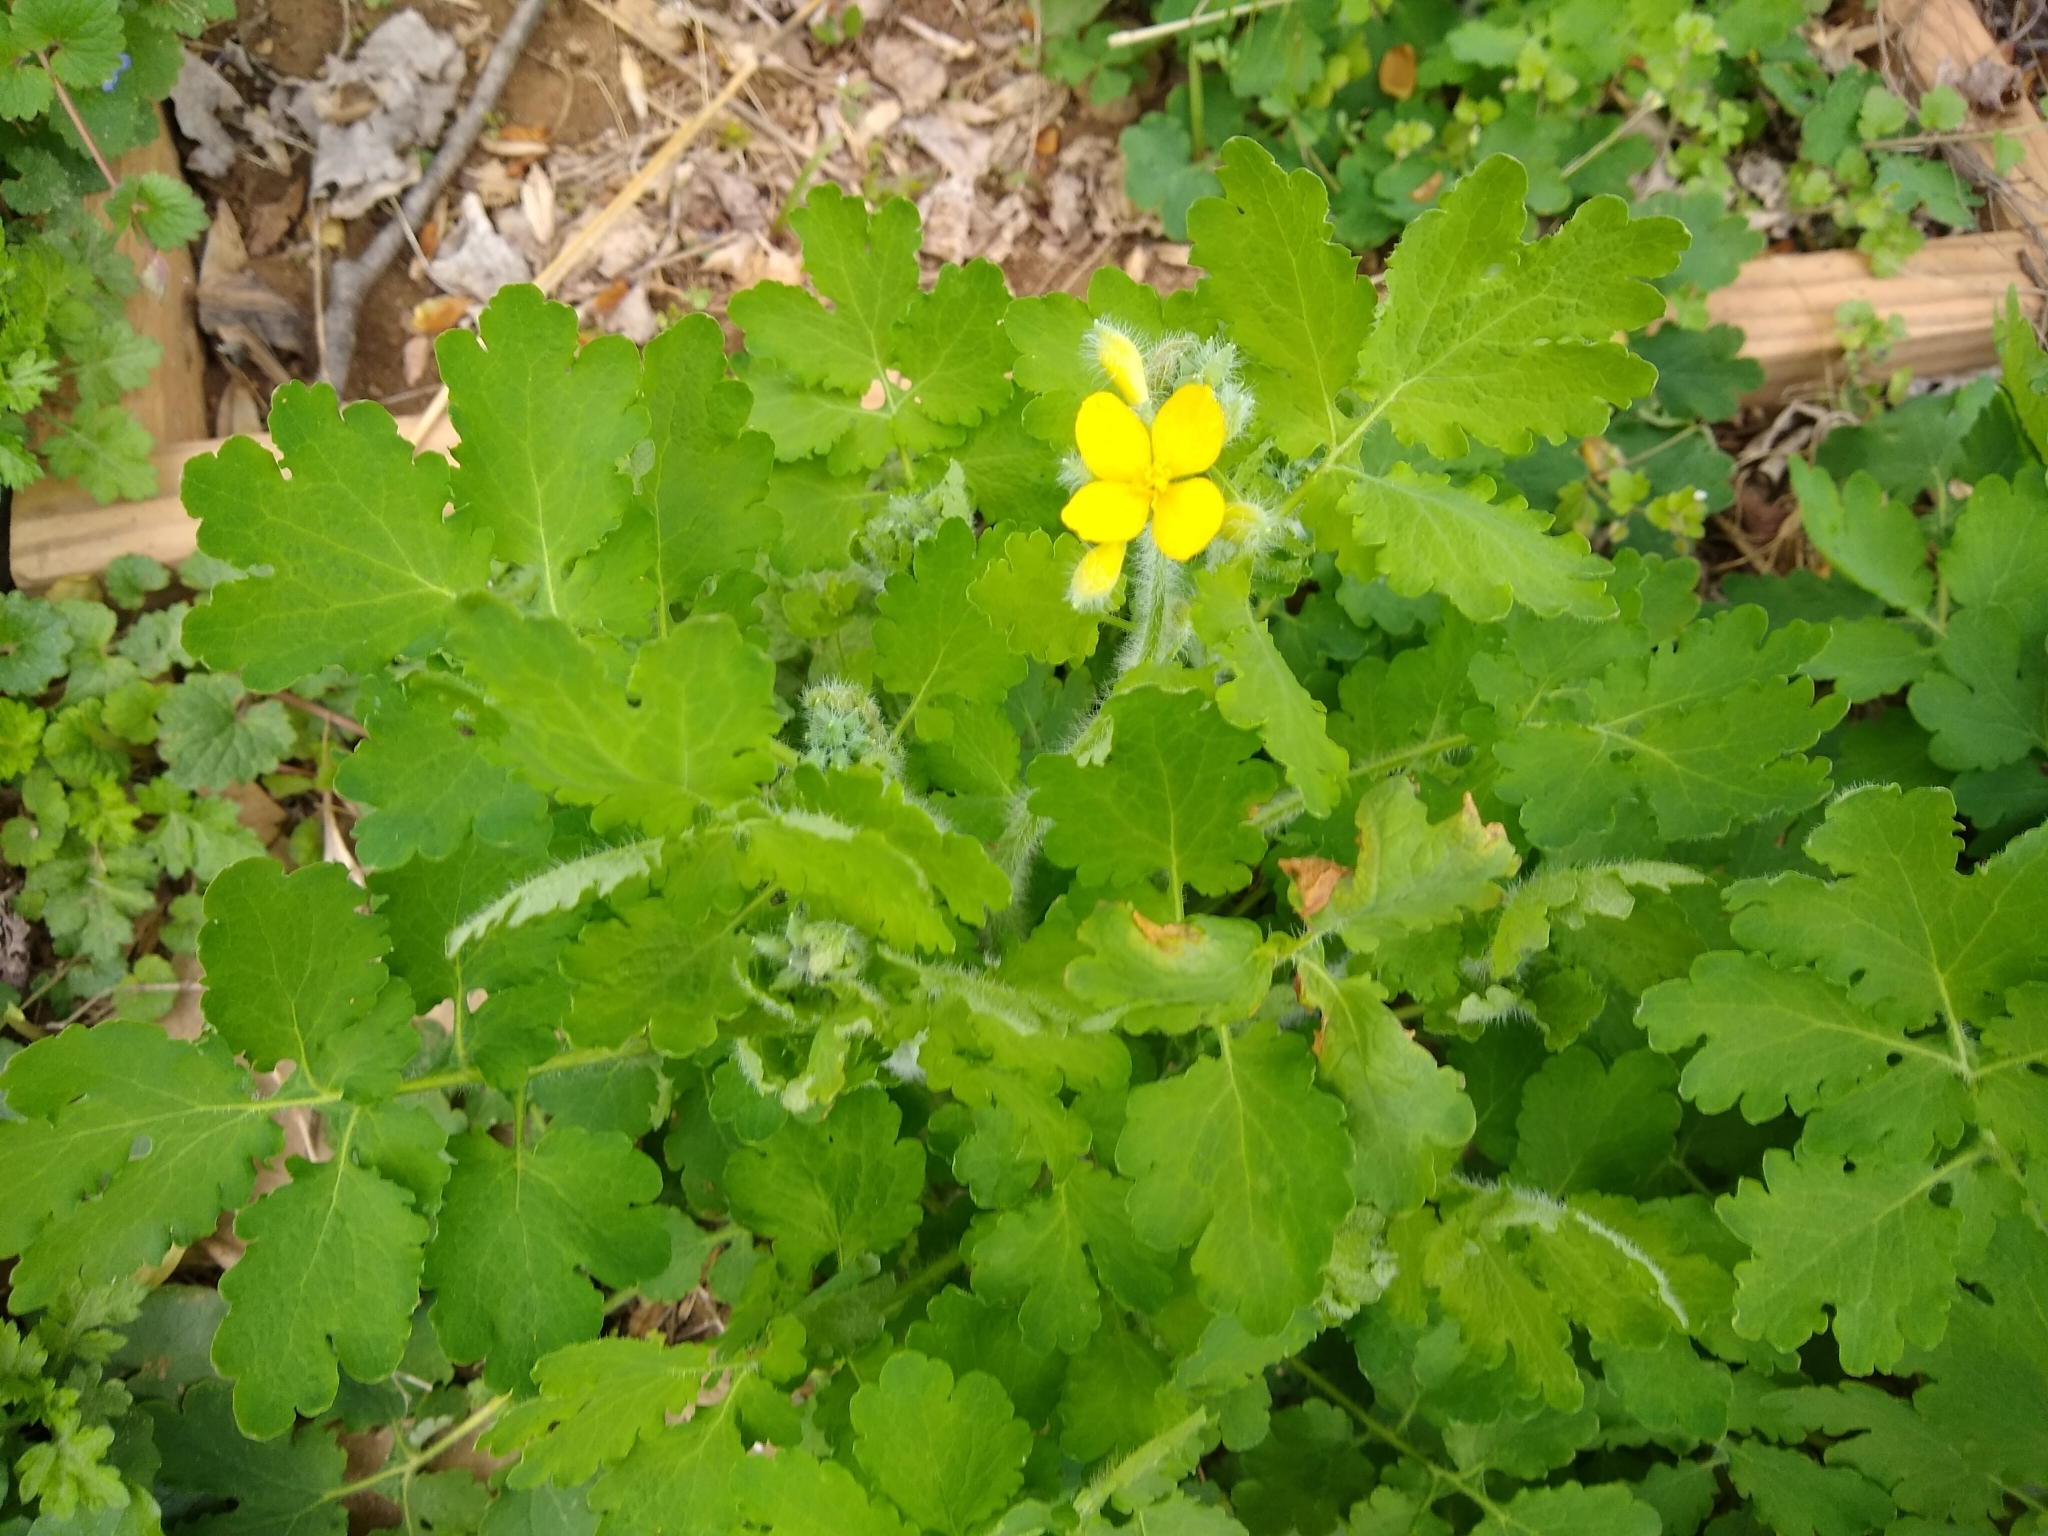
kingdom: Plantae
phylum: Tracheophyta
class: Magnoliopsida
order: Ranunculales
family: Papaveraceae
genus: Stylophorum
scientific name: Stylophorum diphyllum
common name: Celandine poppy
